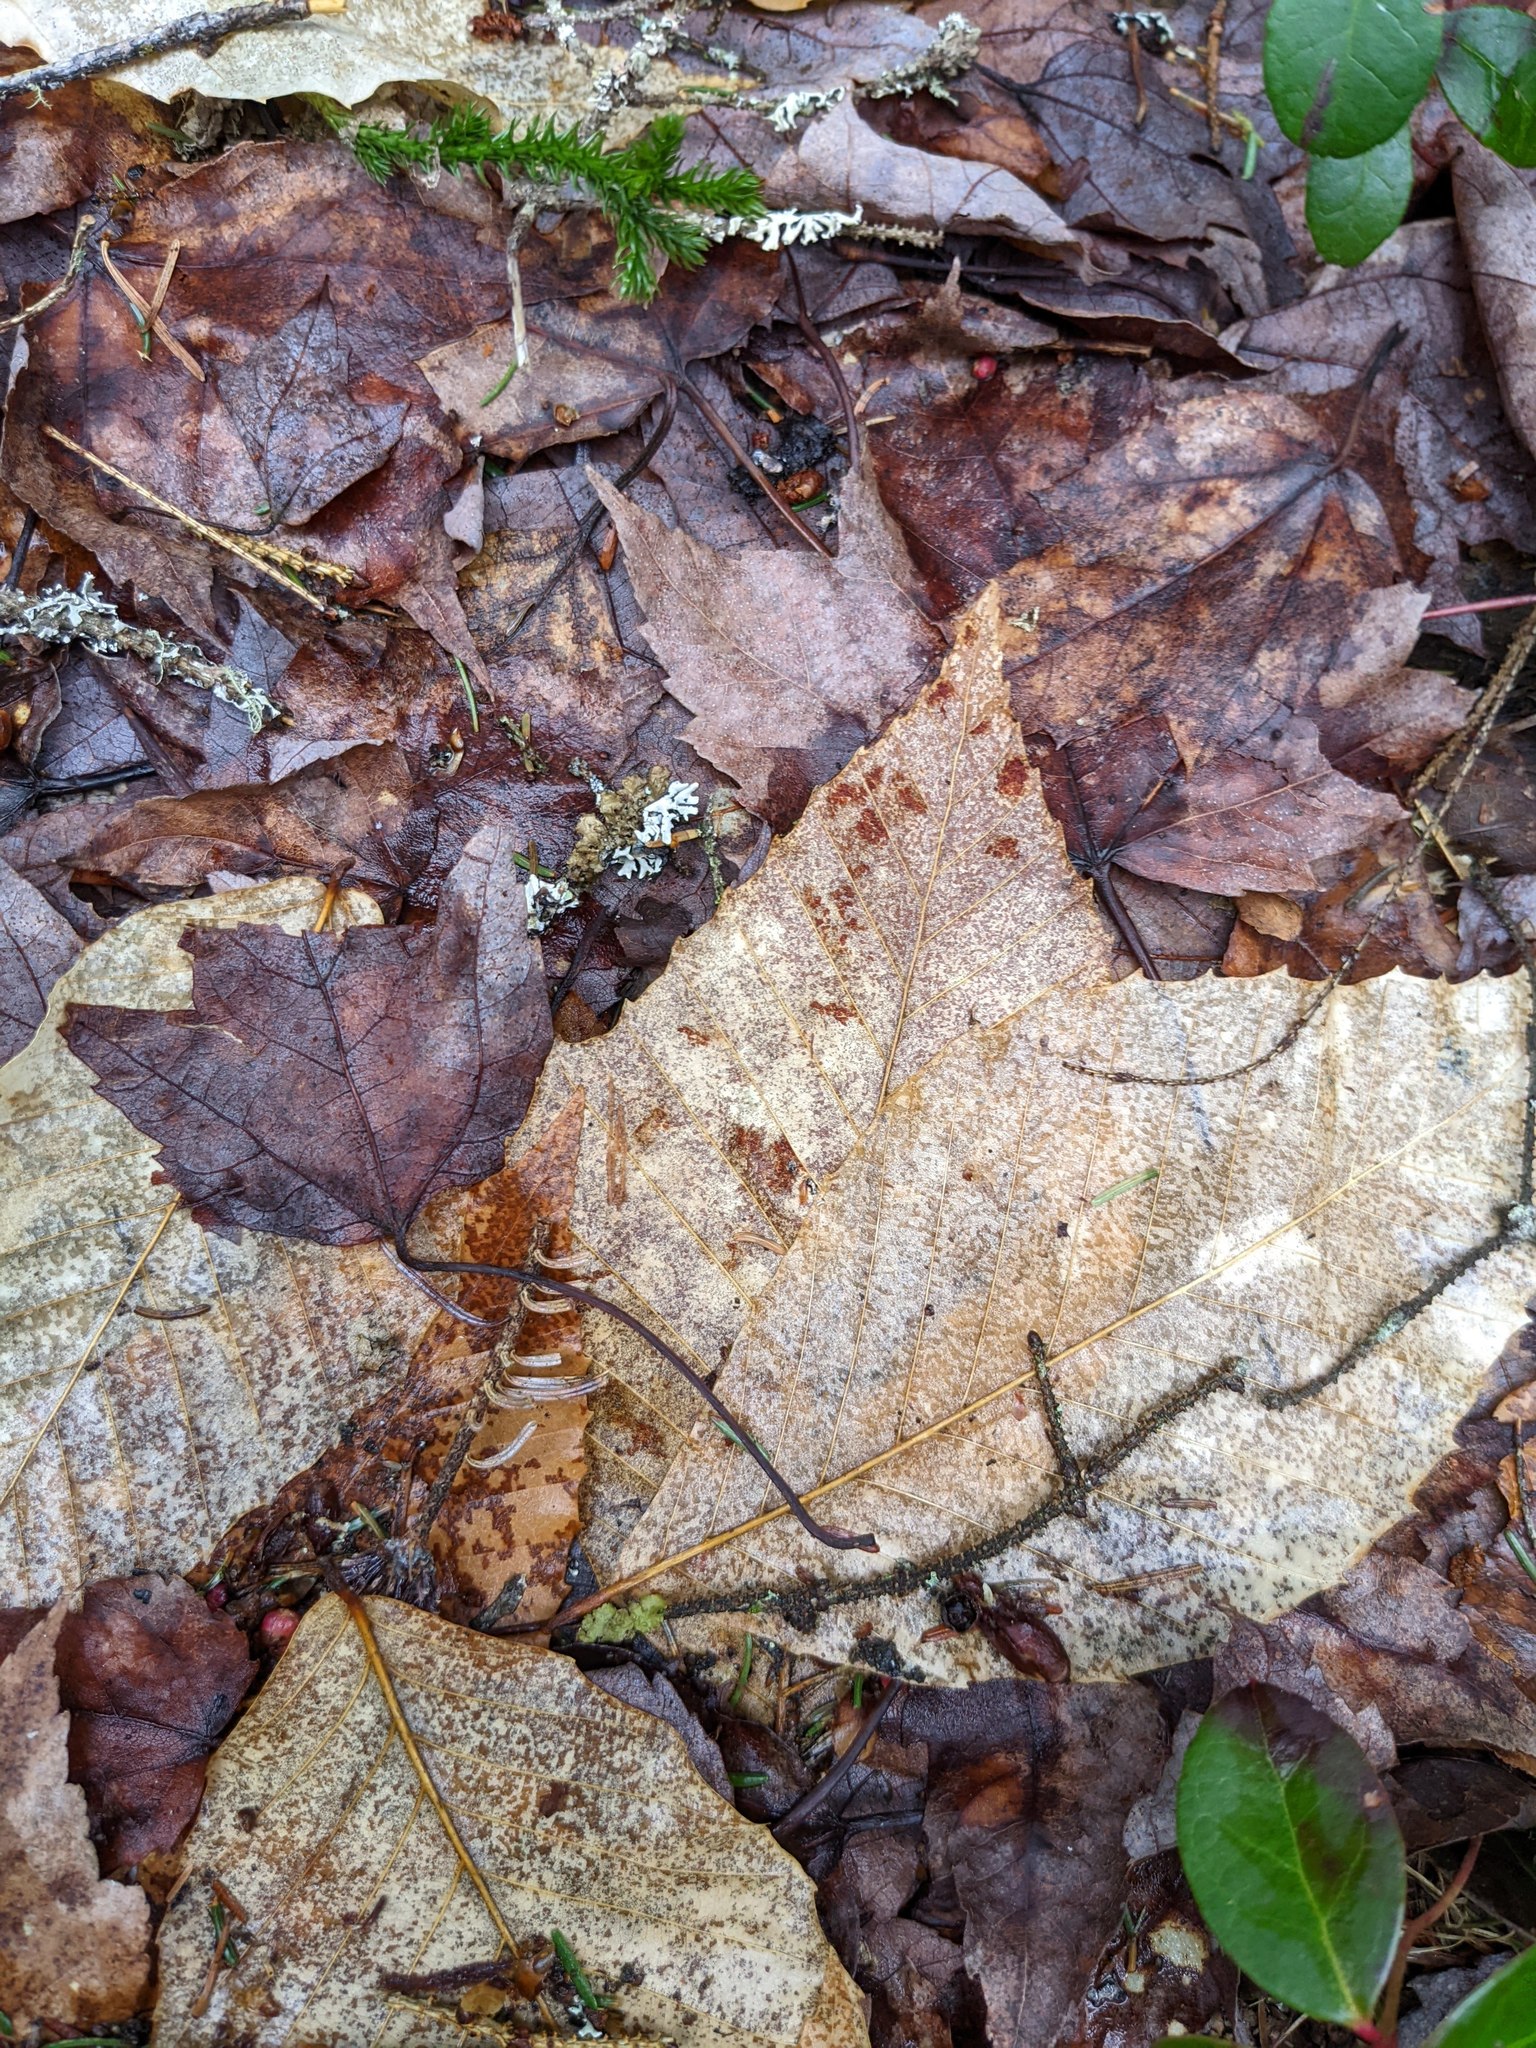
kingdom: Plantae
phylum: Tracheophyta
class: Magnoliopsida
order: Fagales
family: Fagaceae
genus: Fagus
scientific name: Fagus grandifolia
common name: American beech
